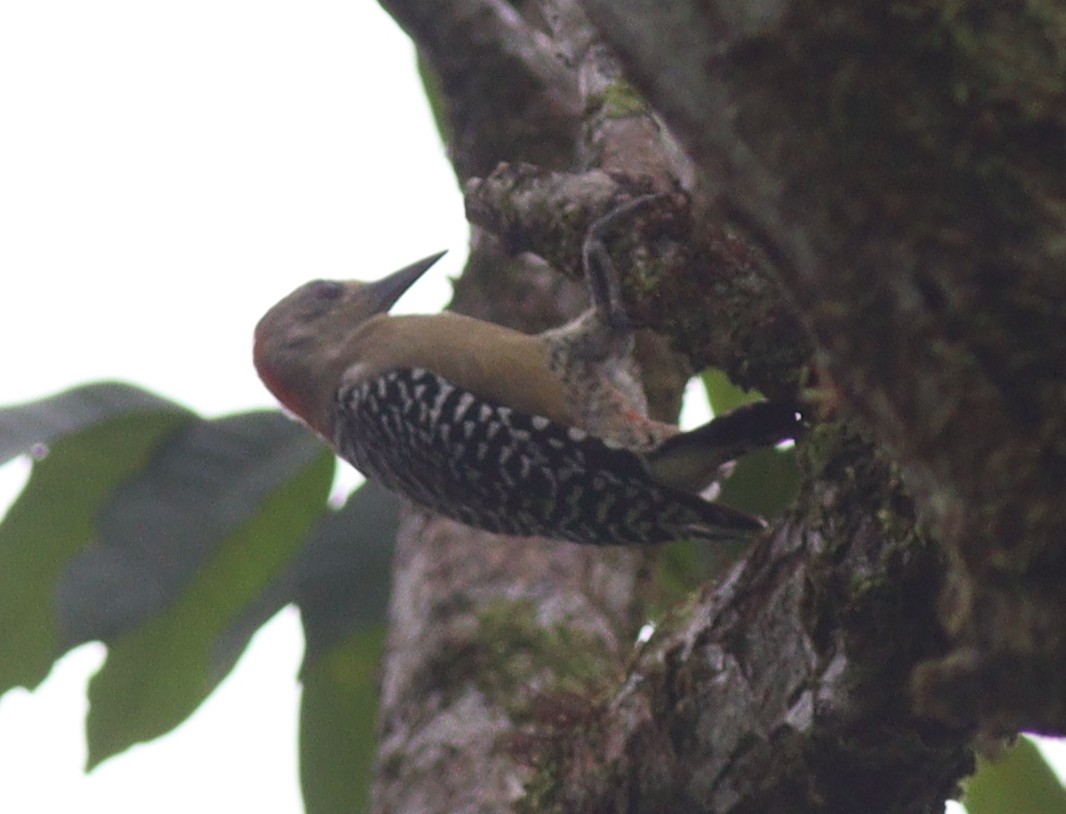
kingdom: Animalia
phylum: Chordata
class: Aves
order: Piciformes
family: Picidae
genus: Melanerpes
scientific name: Melanerpes rubricapillus
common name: Red-crowned woodpecker
